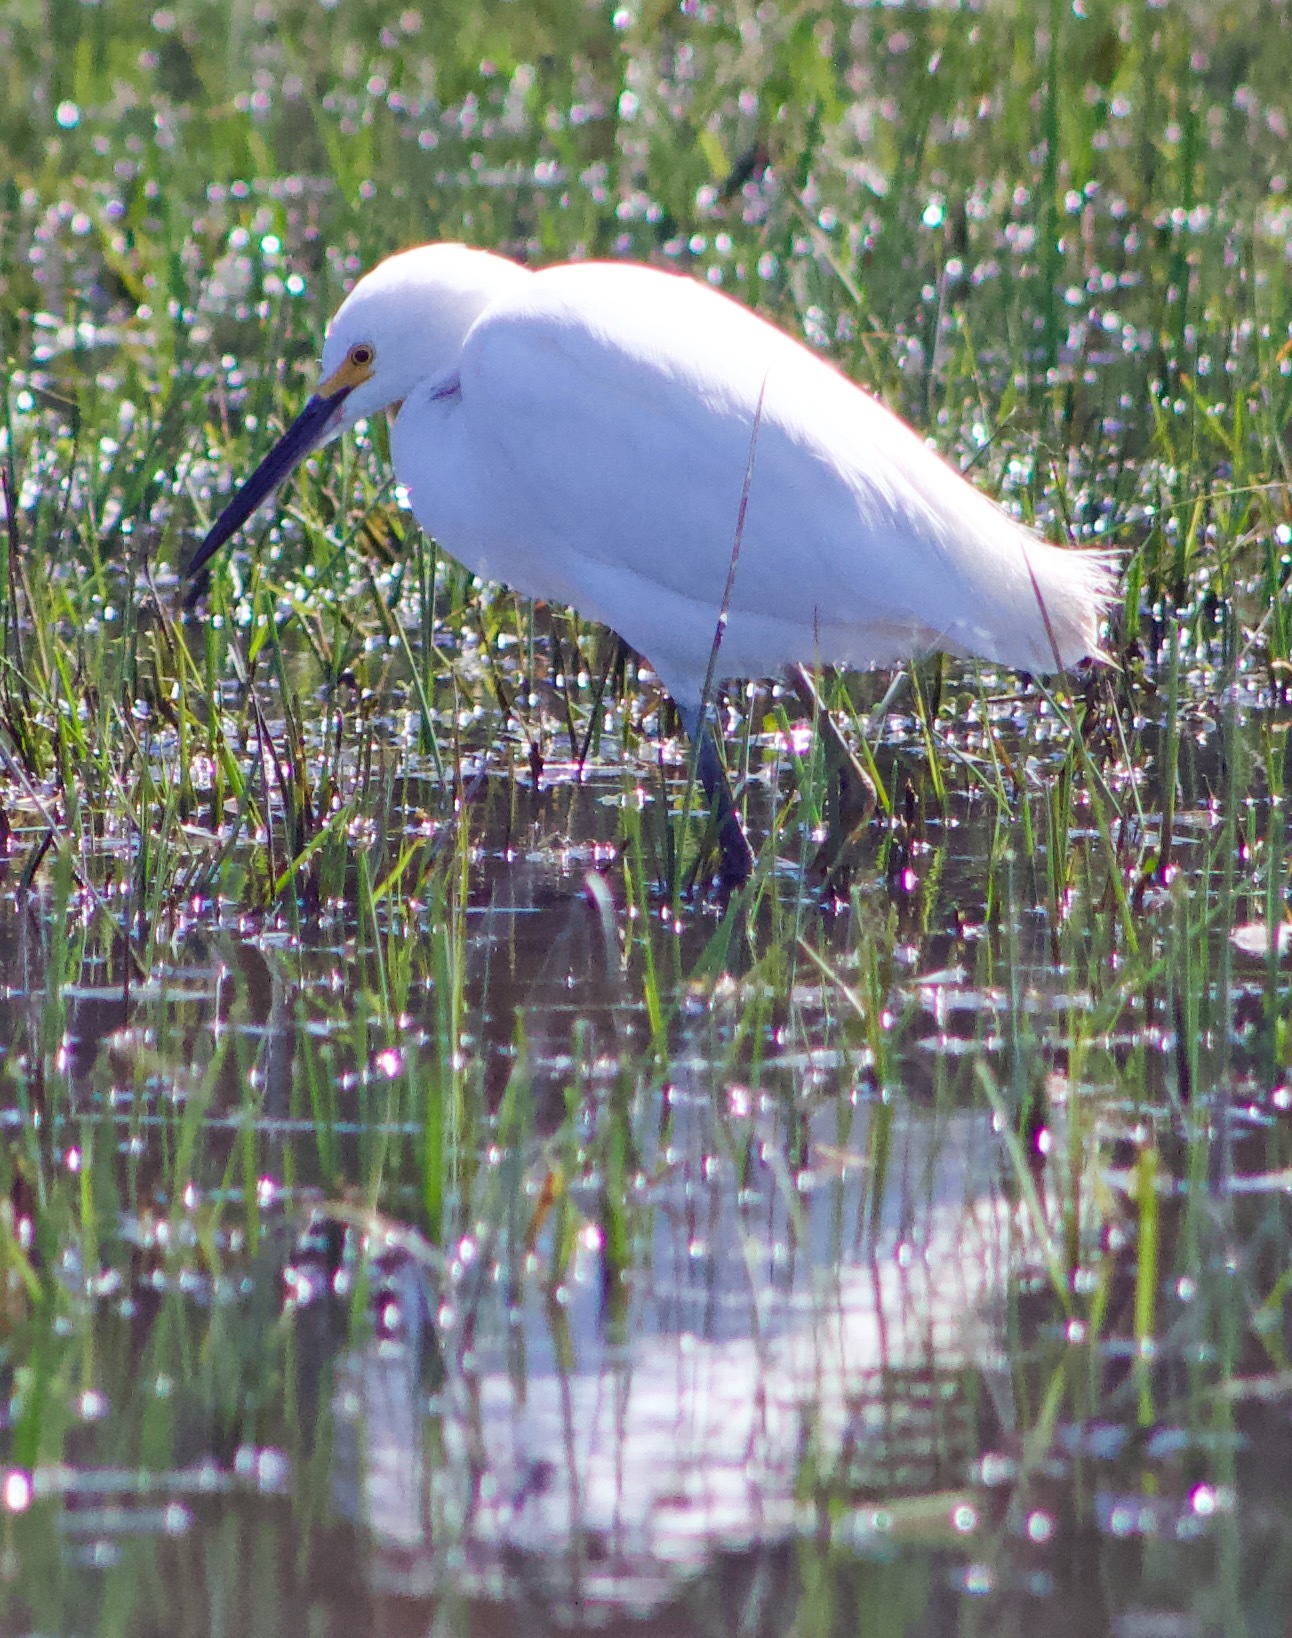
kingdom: Animalia
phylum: Chordata
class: Aves
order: Pelecaniformes
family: Ardeidae
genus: Egretta
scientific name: Egretta thula
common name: Snowy egret
